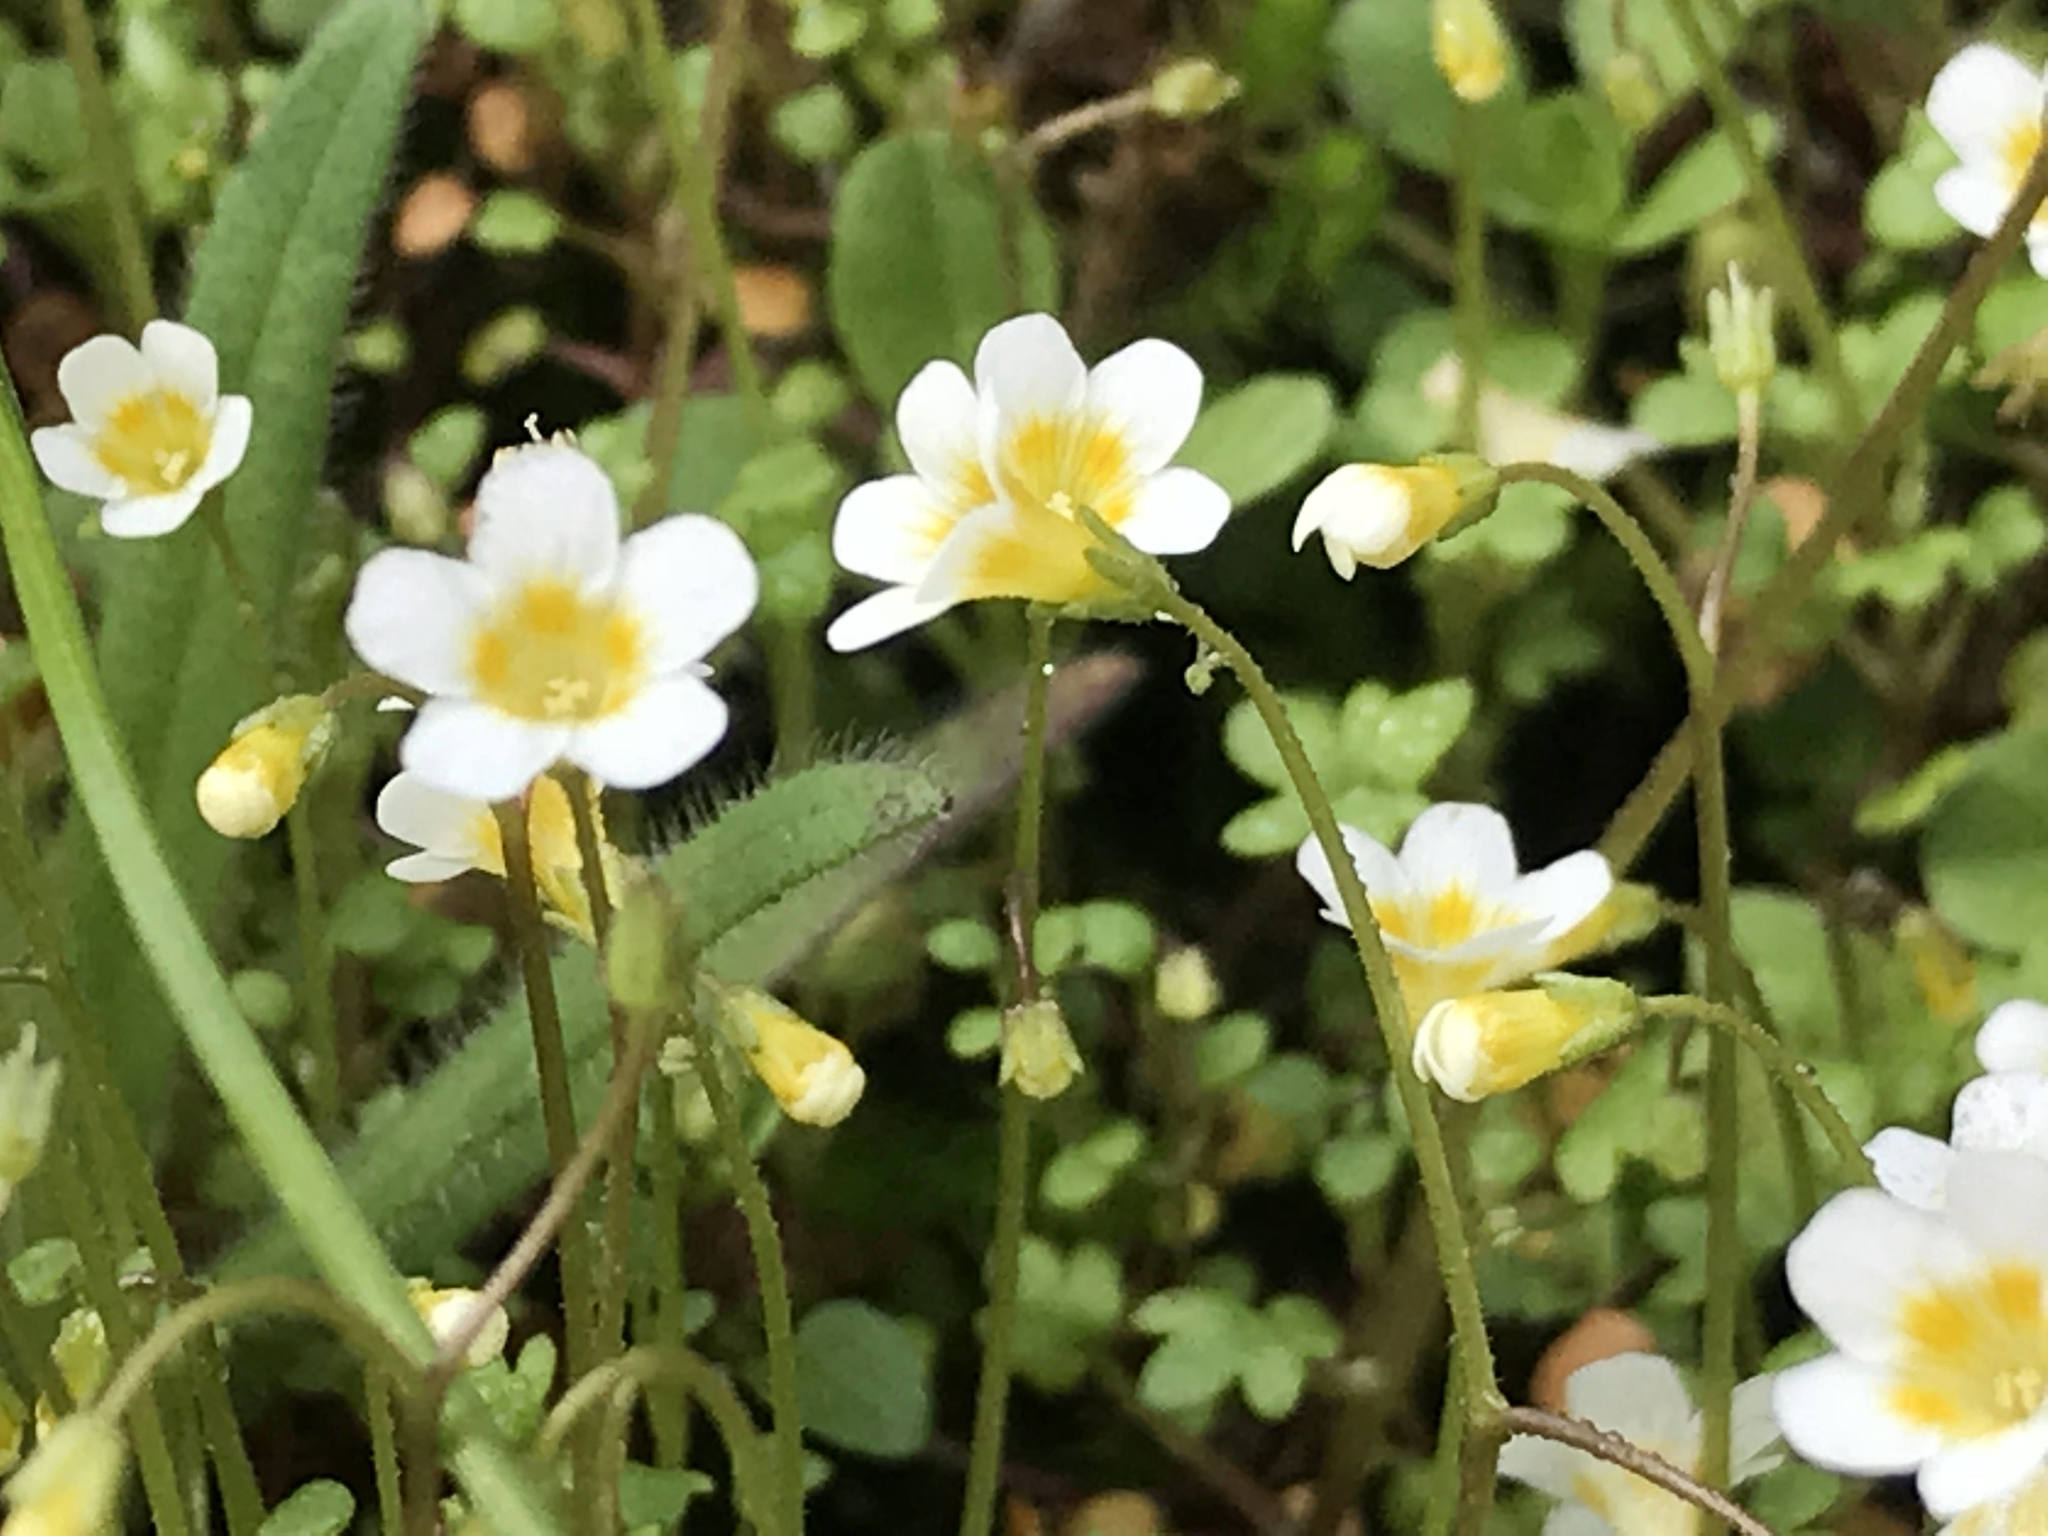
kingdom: Plantae
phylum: Tracheophyta
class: Magnoliopsida
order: Boraginales
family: Hydrophyllaceae
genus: Romanzoffia
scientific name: Romanzoffia thompsonii
